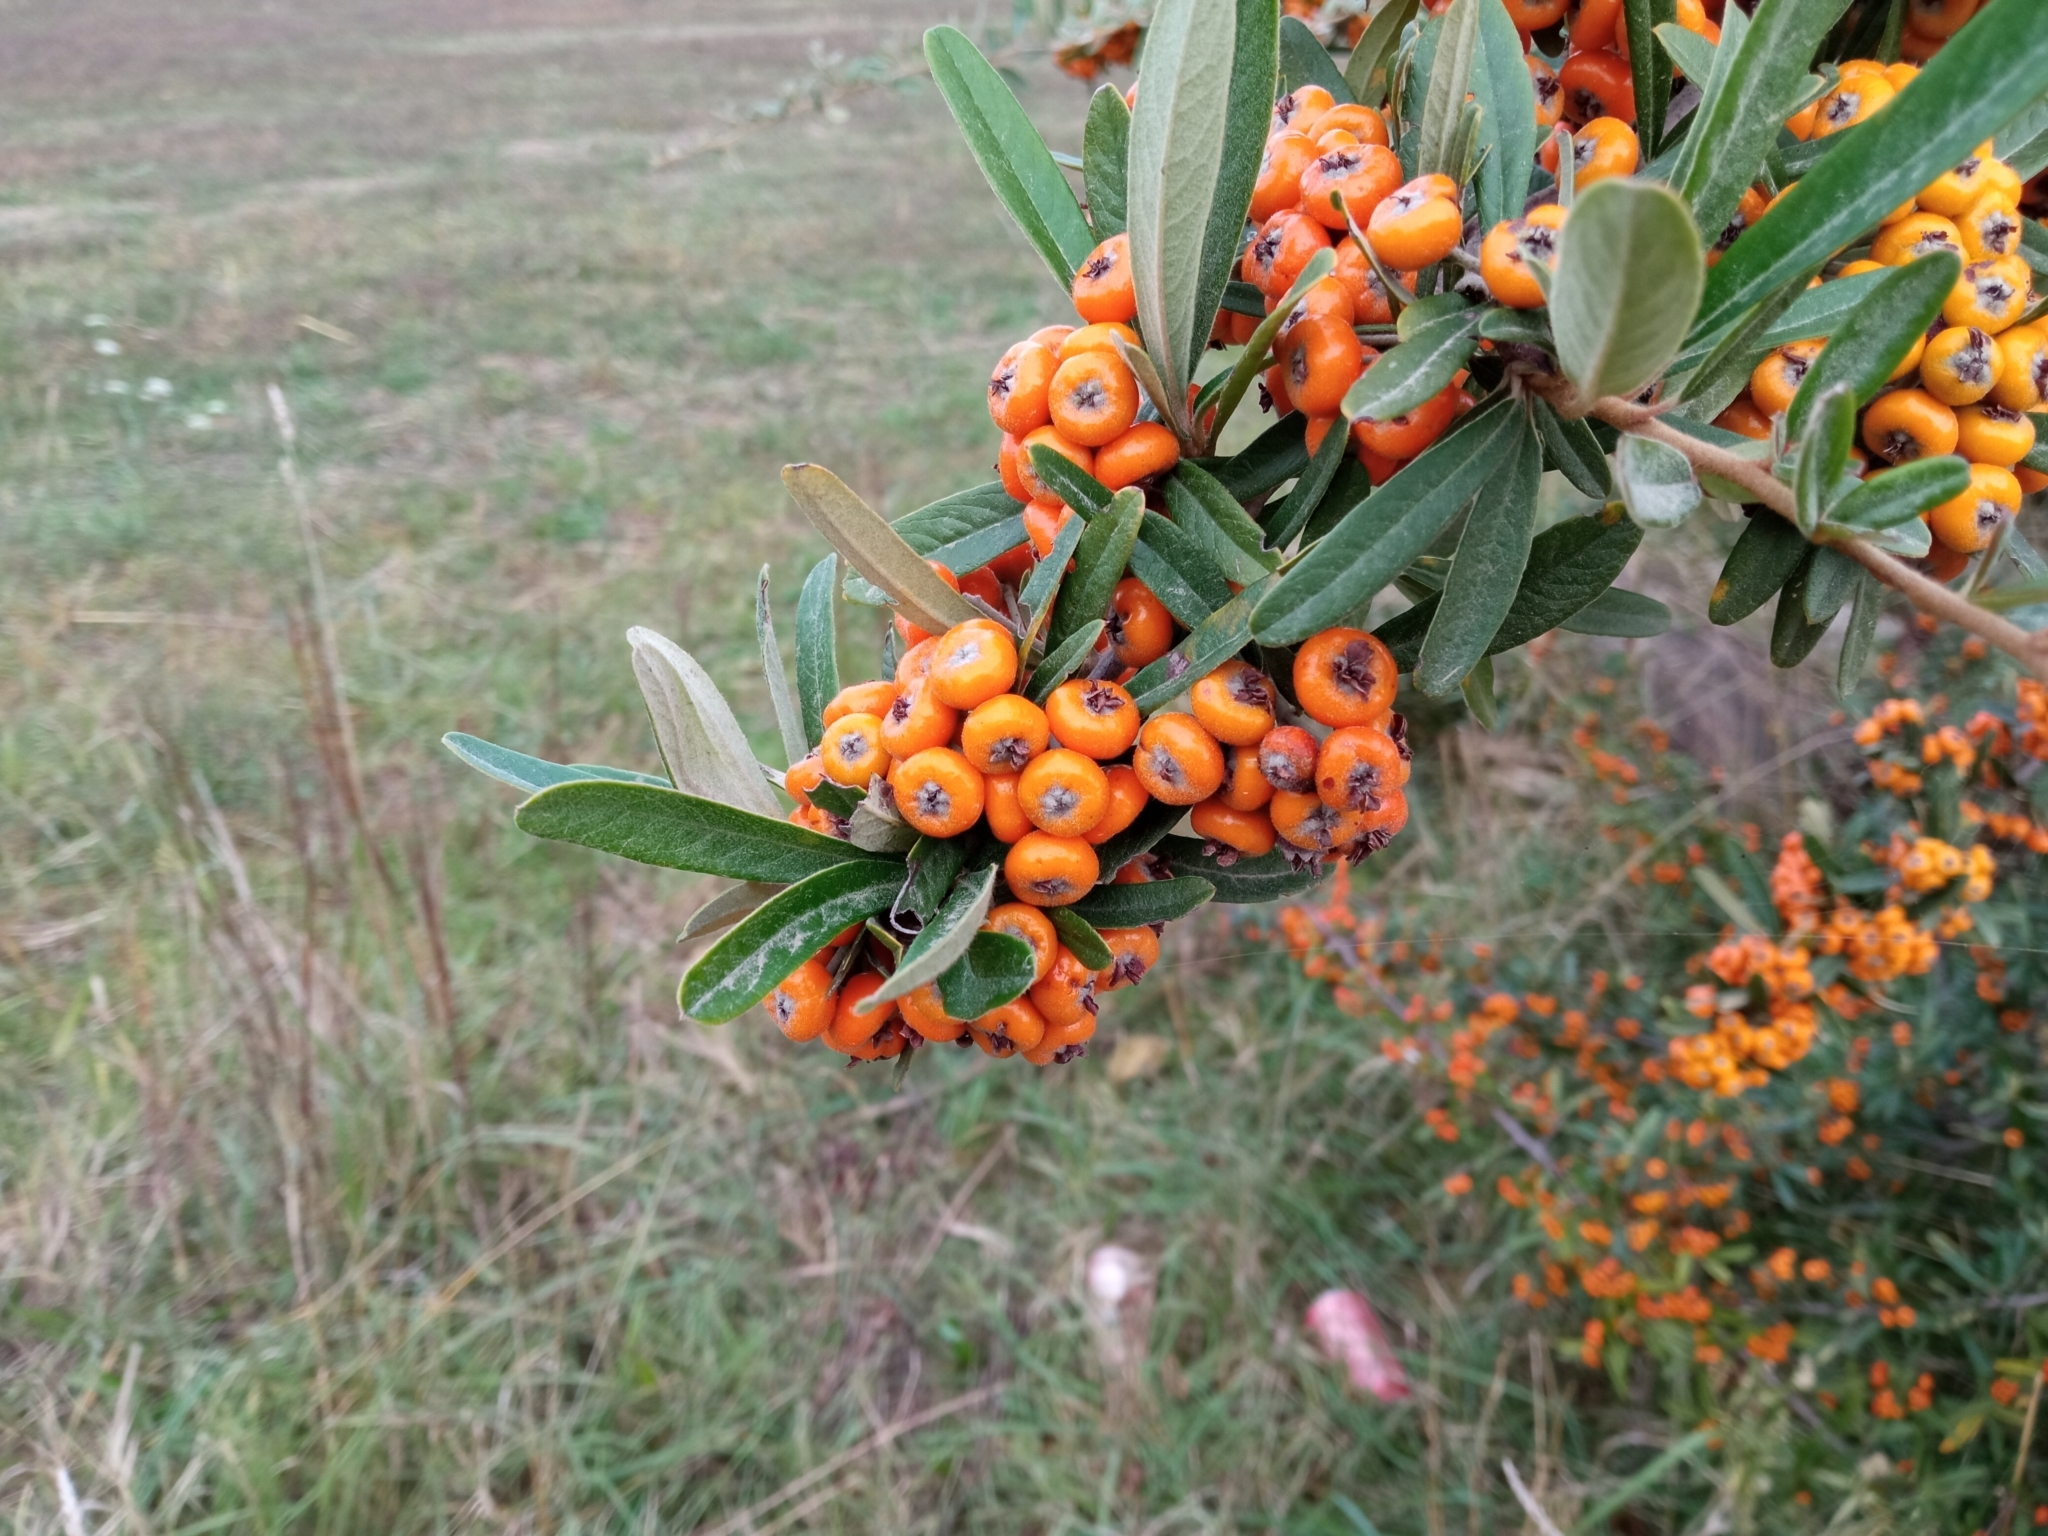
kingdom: Plantae
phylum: Tracheophyta
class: Magnoliopsida
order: Rosales
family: Rosaceae
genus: Pyracantha
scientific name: Pyracantha angustifolia
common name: Narrowleaf firethorn
